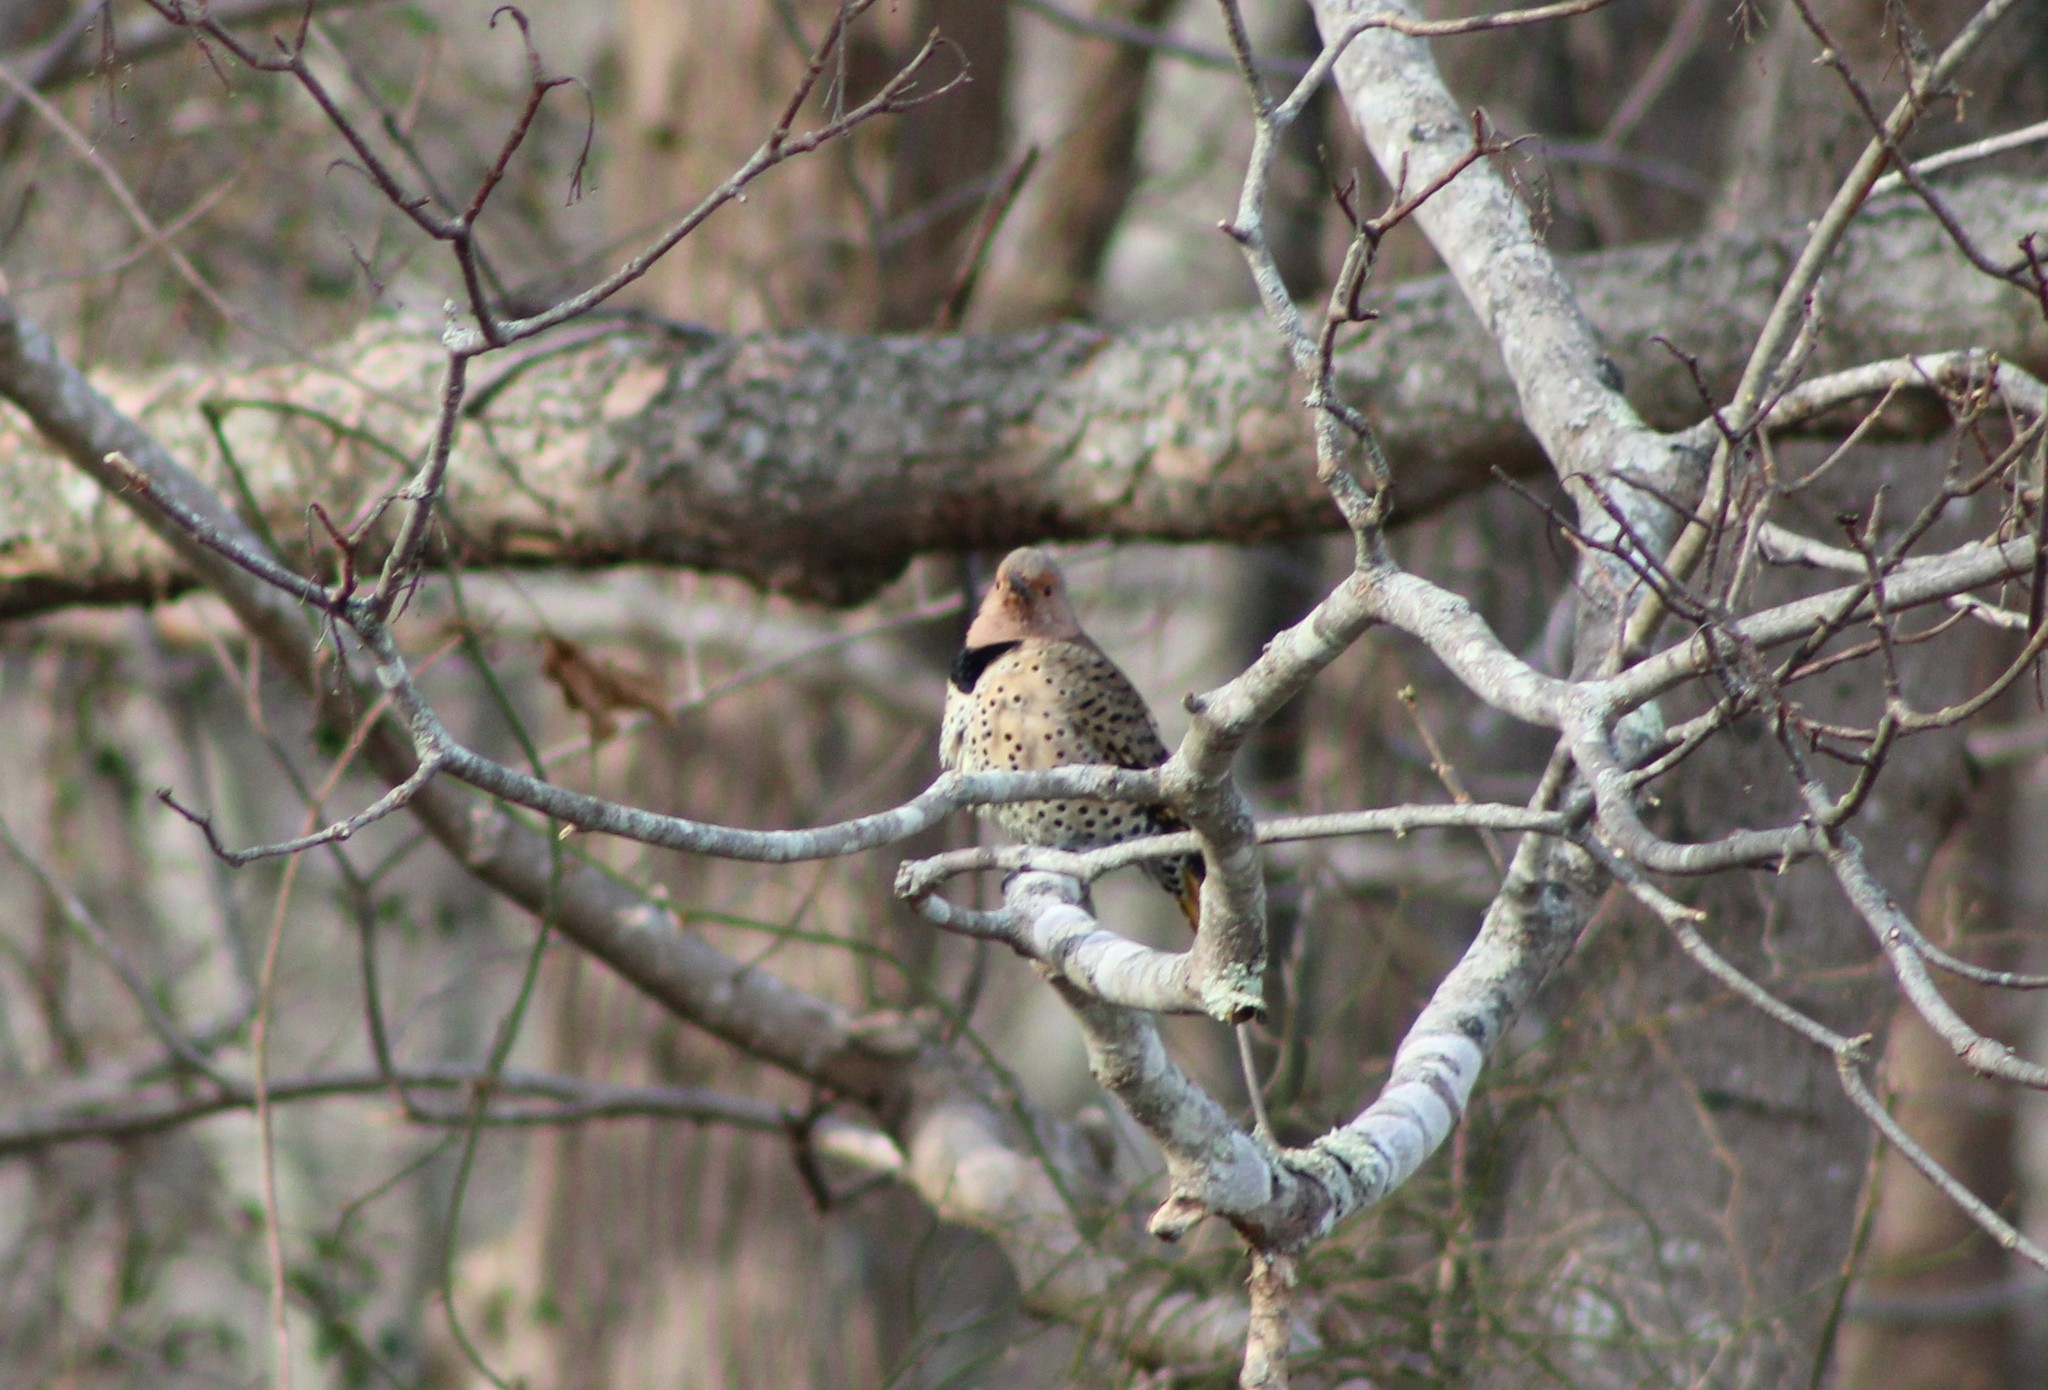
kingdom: Animalia
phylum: Chordata
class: Aves
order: Piciformes
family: Picidae
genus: Colaptes
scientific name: Colaptes auratus
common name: Northern flicker
